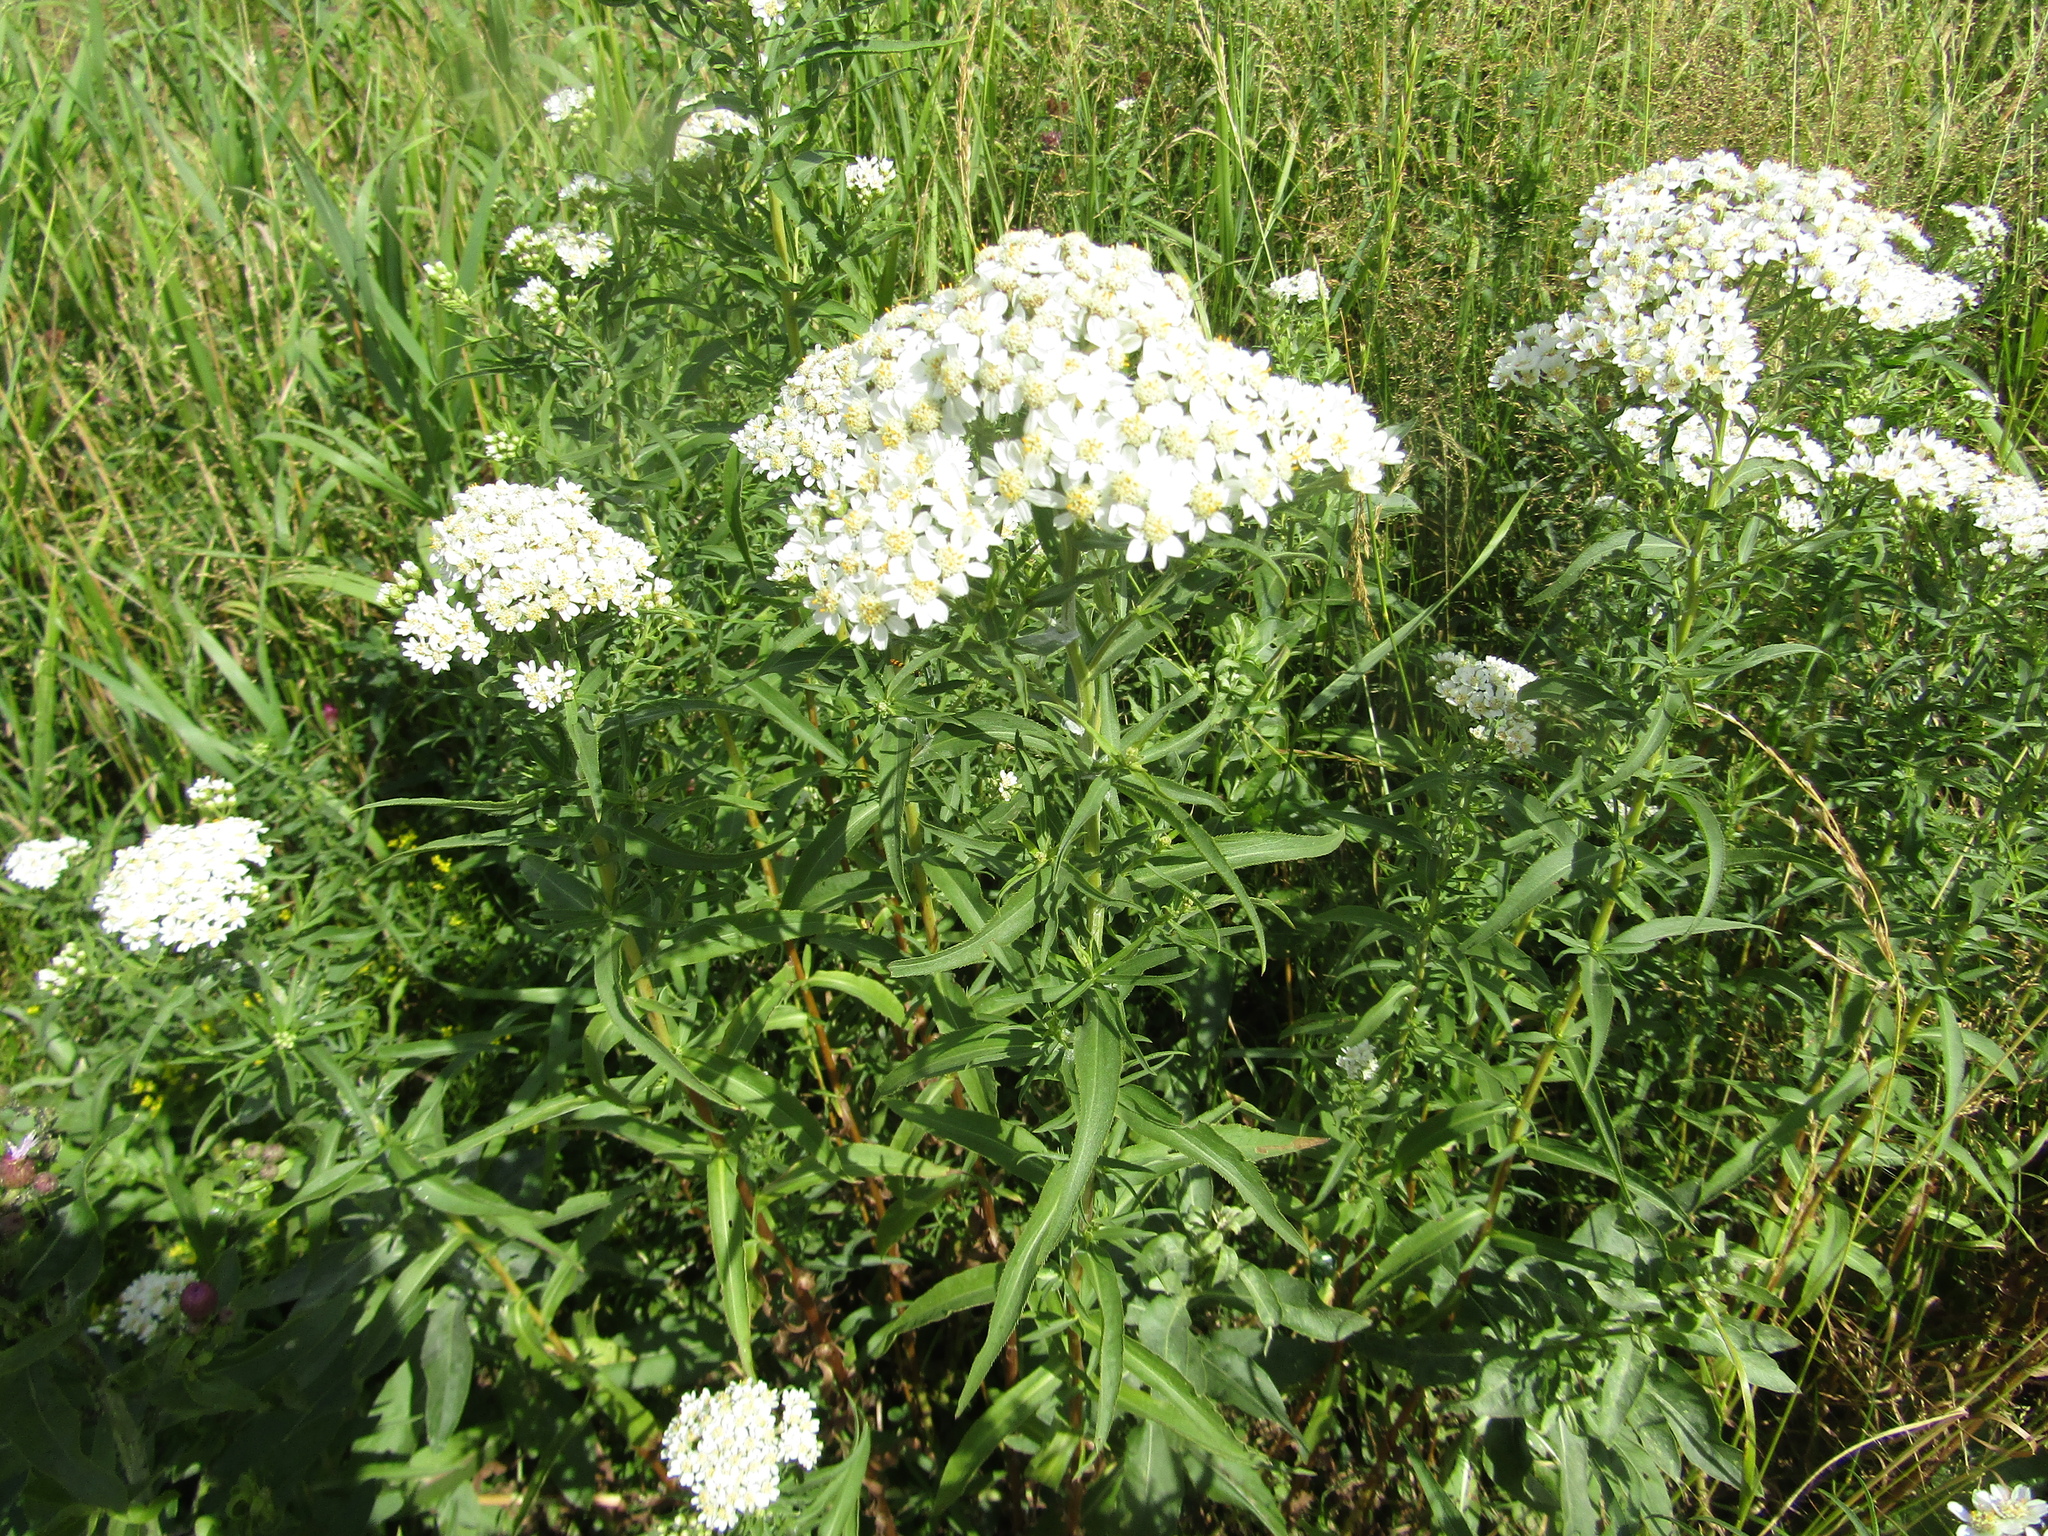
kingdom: Plantae
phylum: Tracheophyta
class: Magnoliopsida
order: Asterales
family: Asteraceae
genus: Achillea
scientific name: Achillea salicifolia
